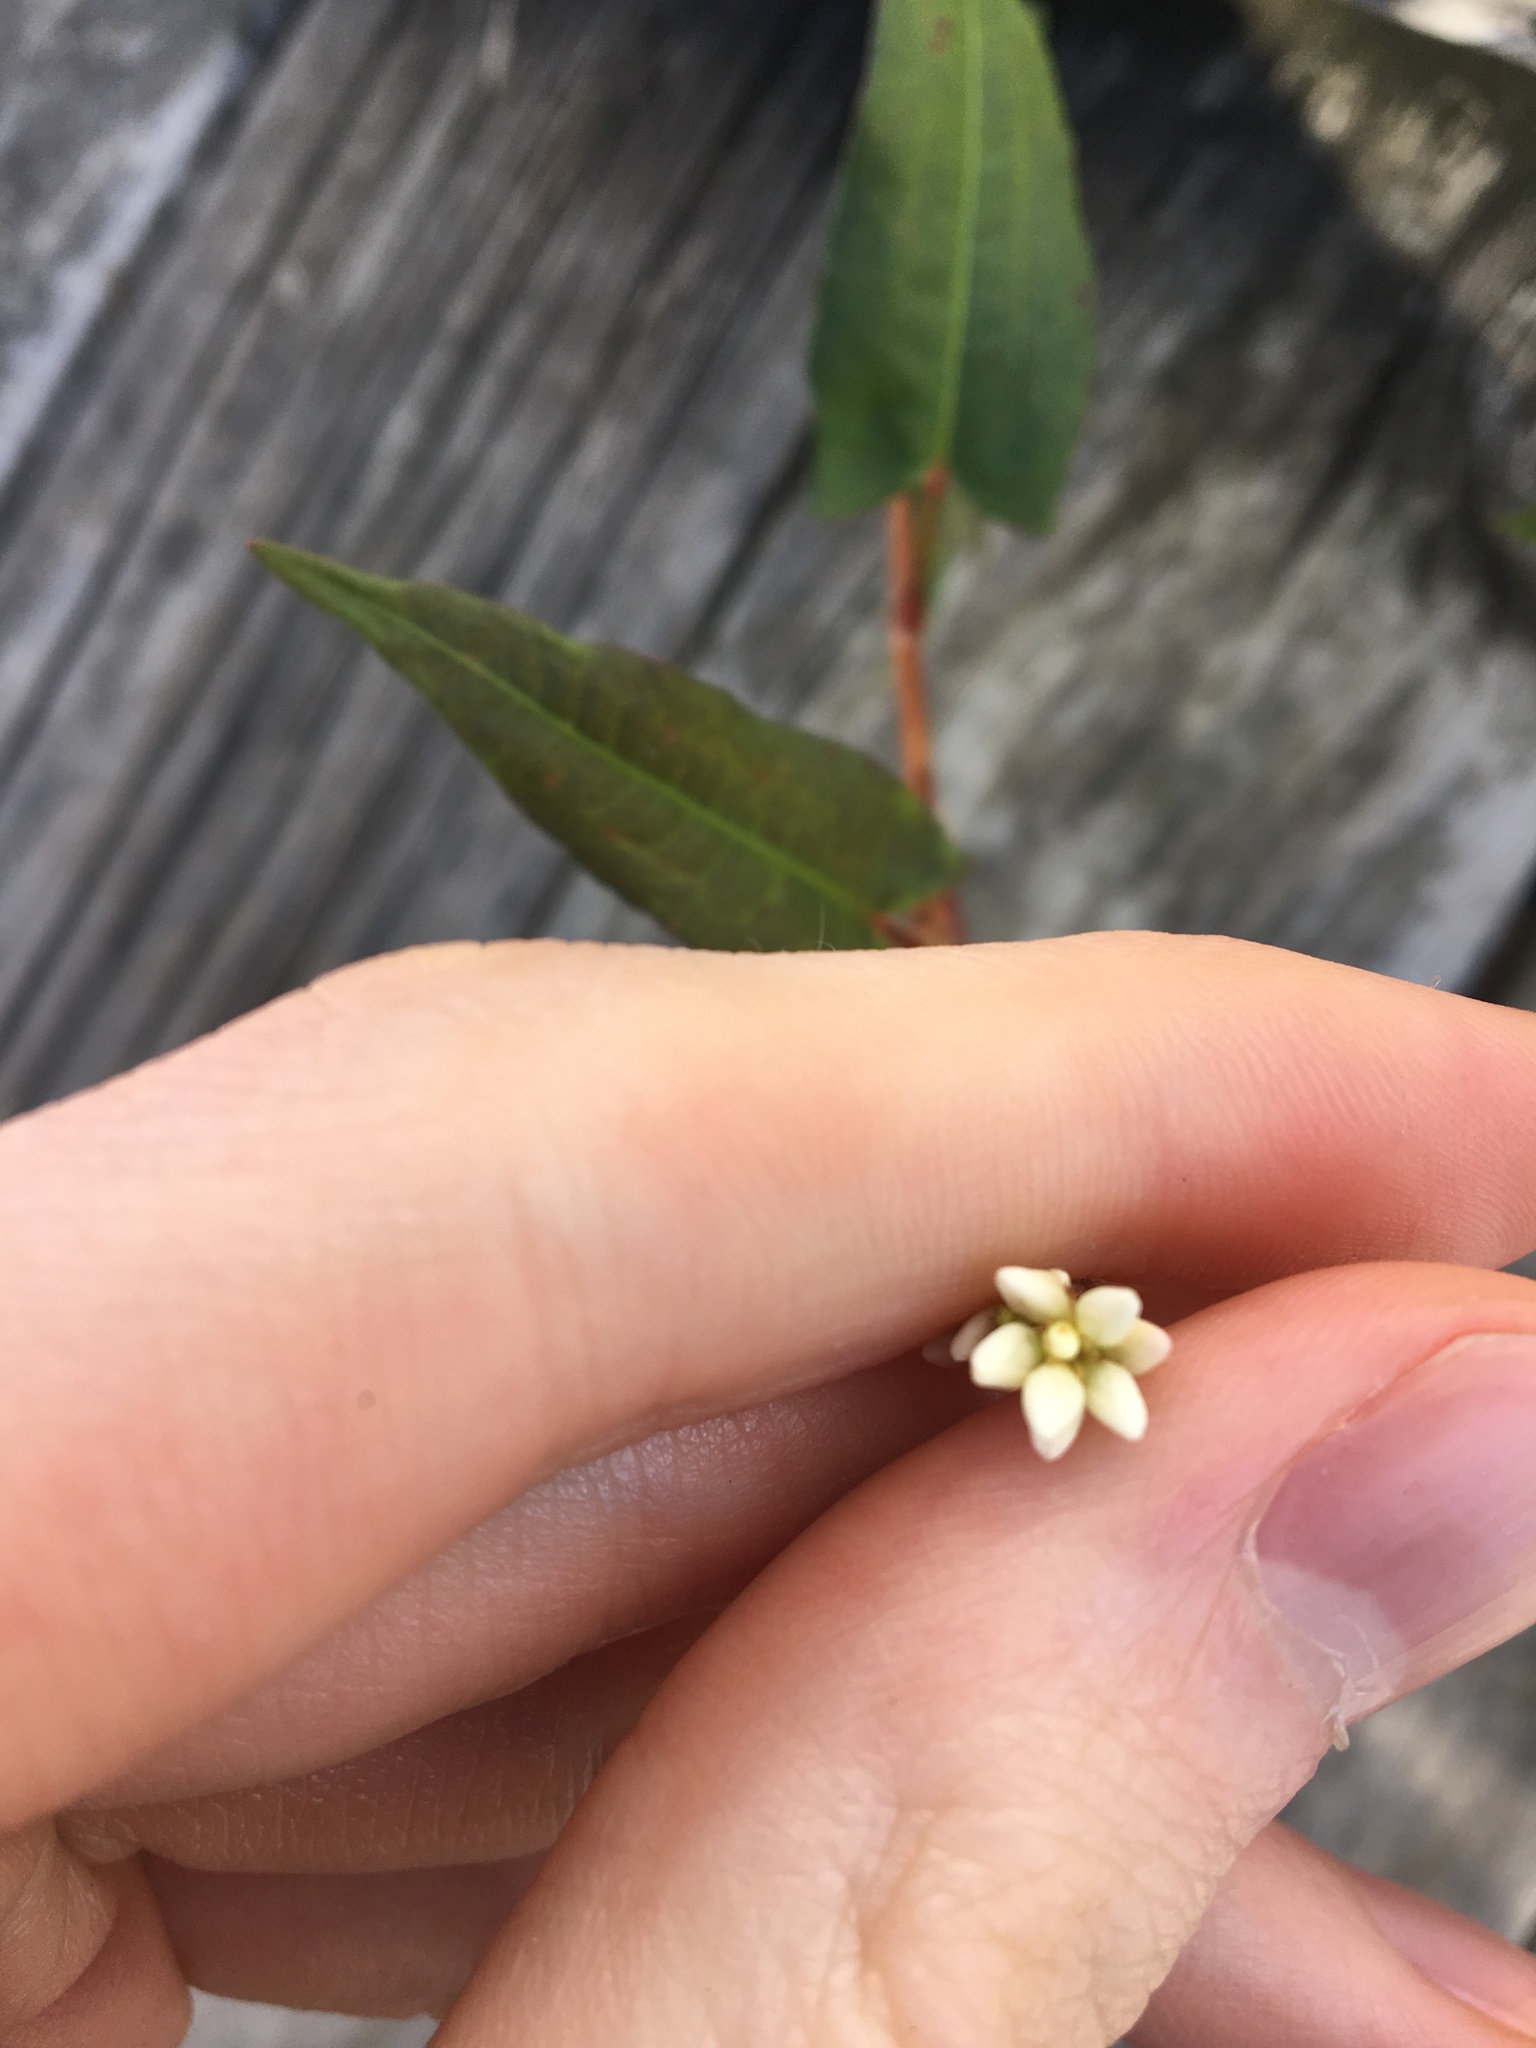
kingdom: Plantae
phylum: Tracheophyta
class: Magnoliopsida
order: Caryophyllales
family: Polygonaceae
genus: Persicaria
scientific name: Persicaria strigosa
